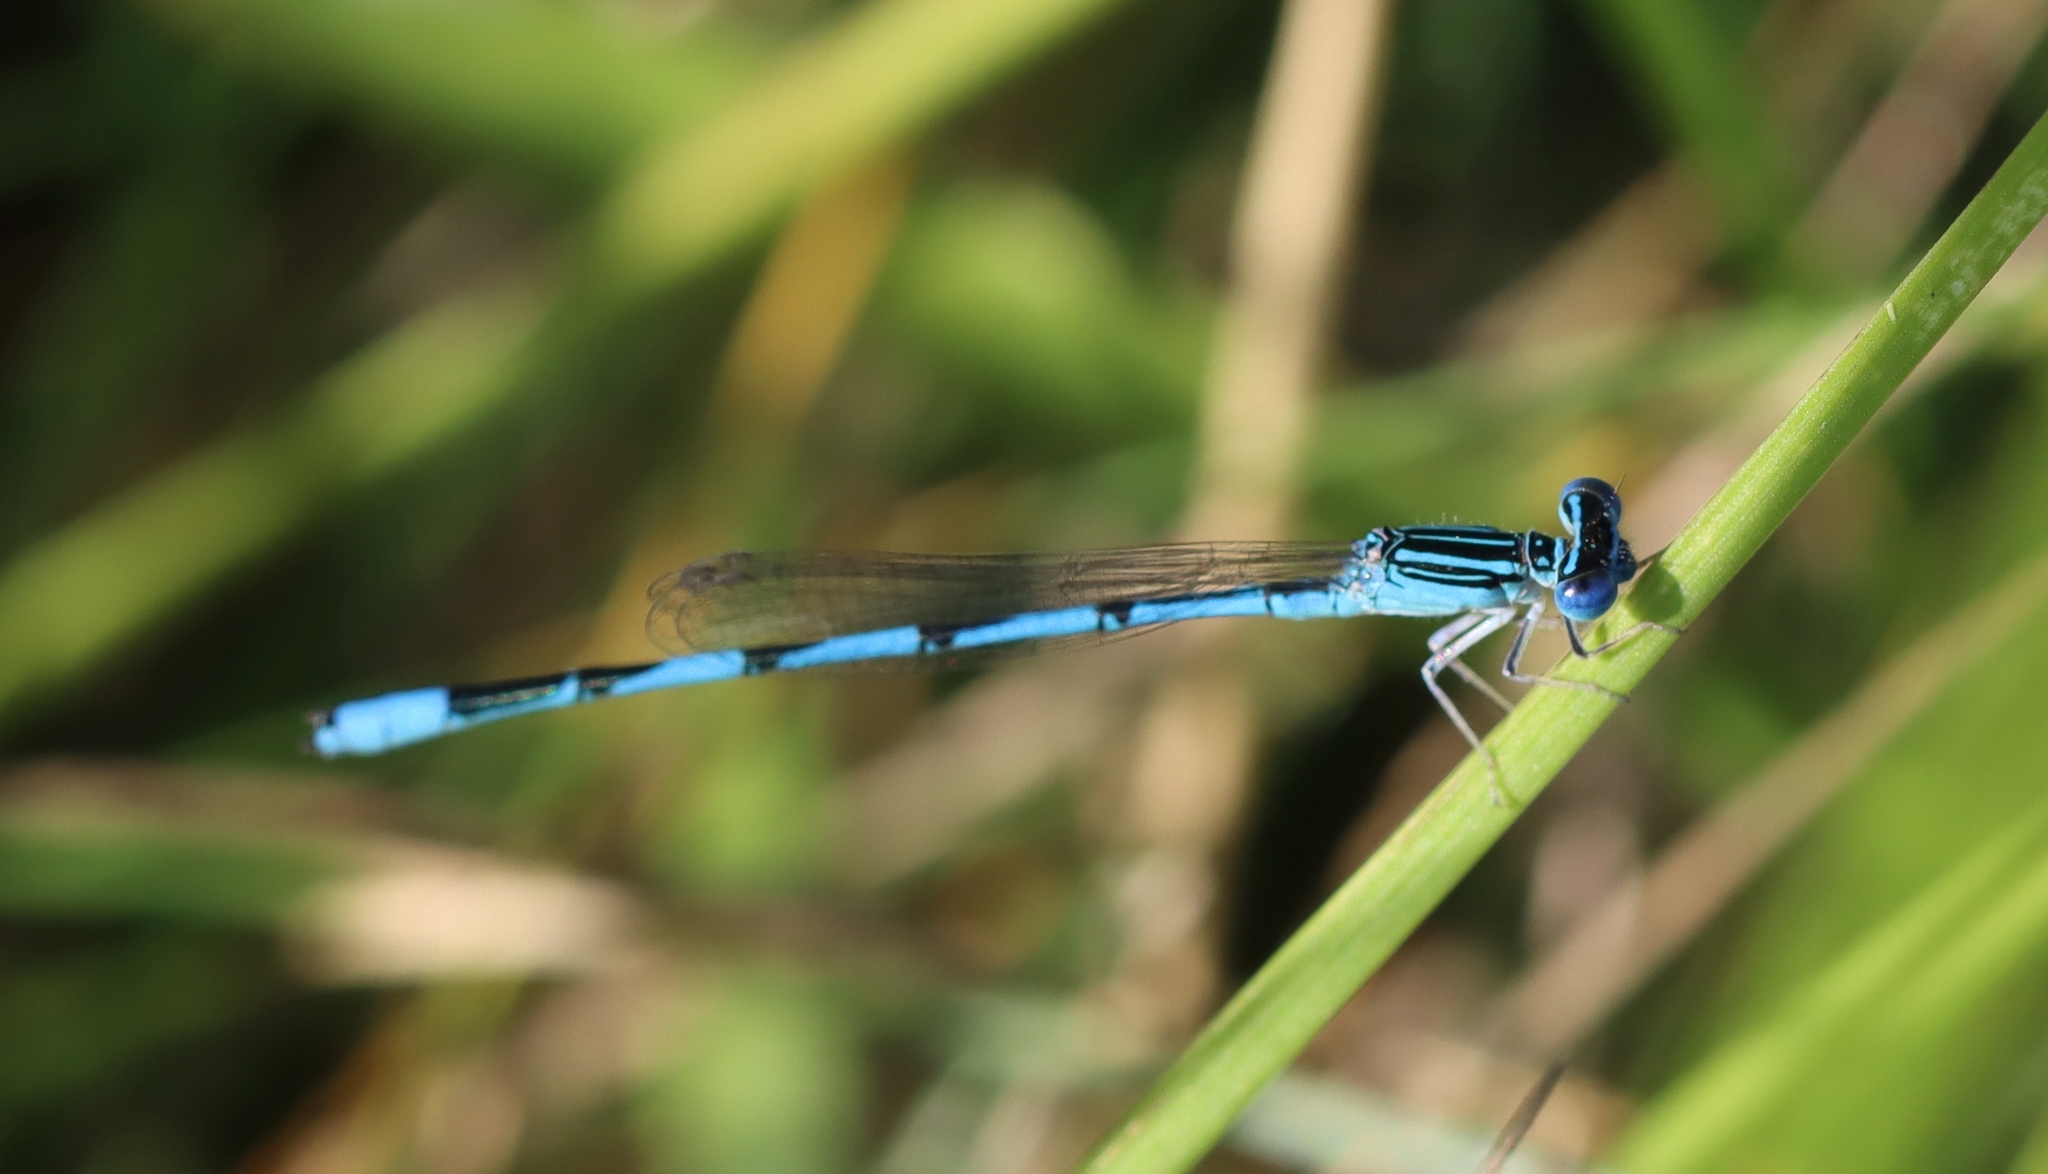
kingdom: Animalia
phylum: Arthropoda
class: Insecta
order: Odonata
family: Coenagrionidae
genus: Enallagma
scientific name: Enallagma basidens
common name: Double-striped bluet
